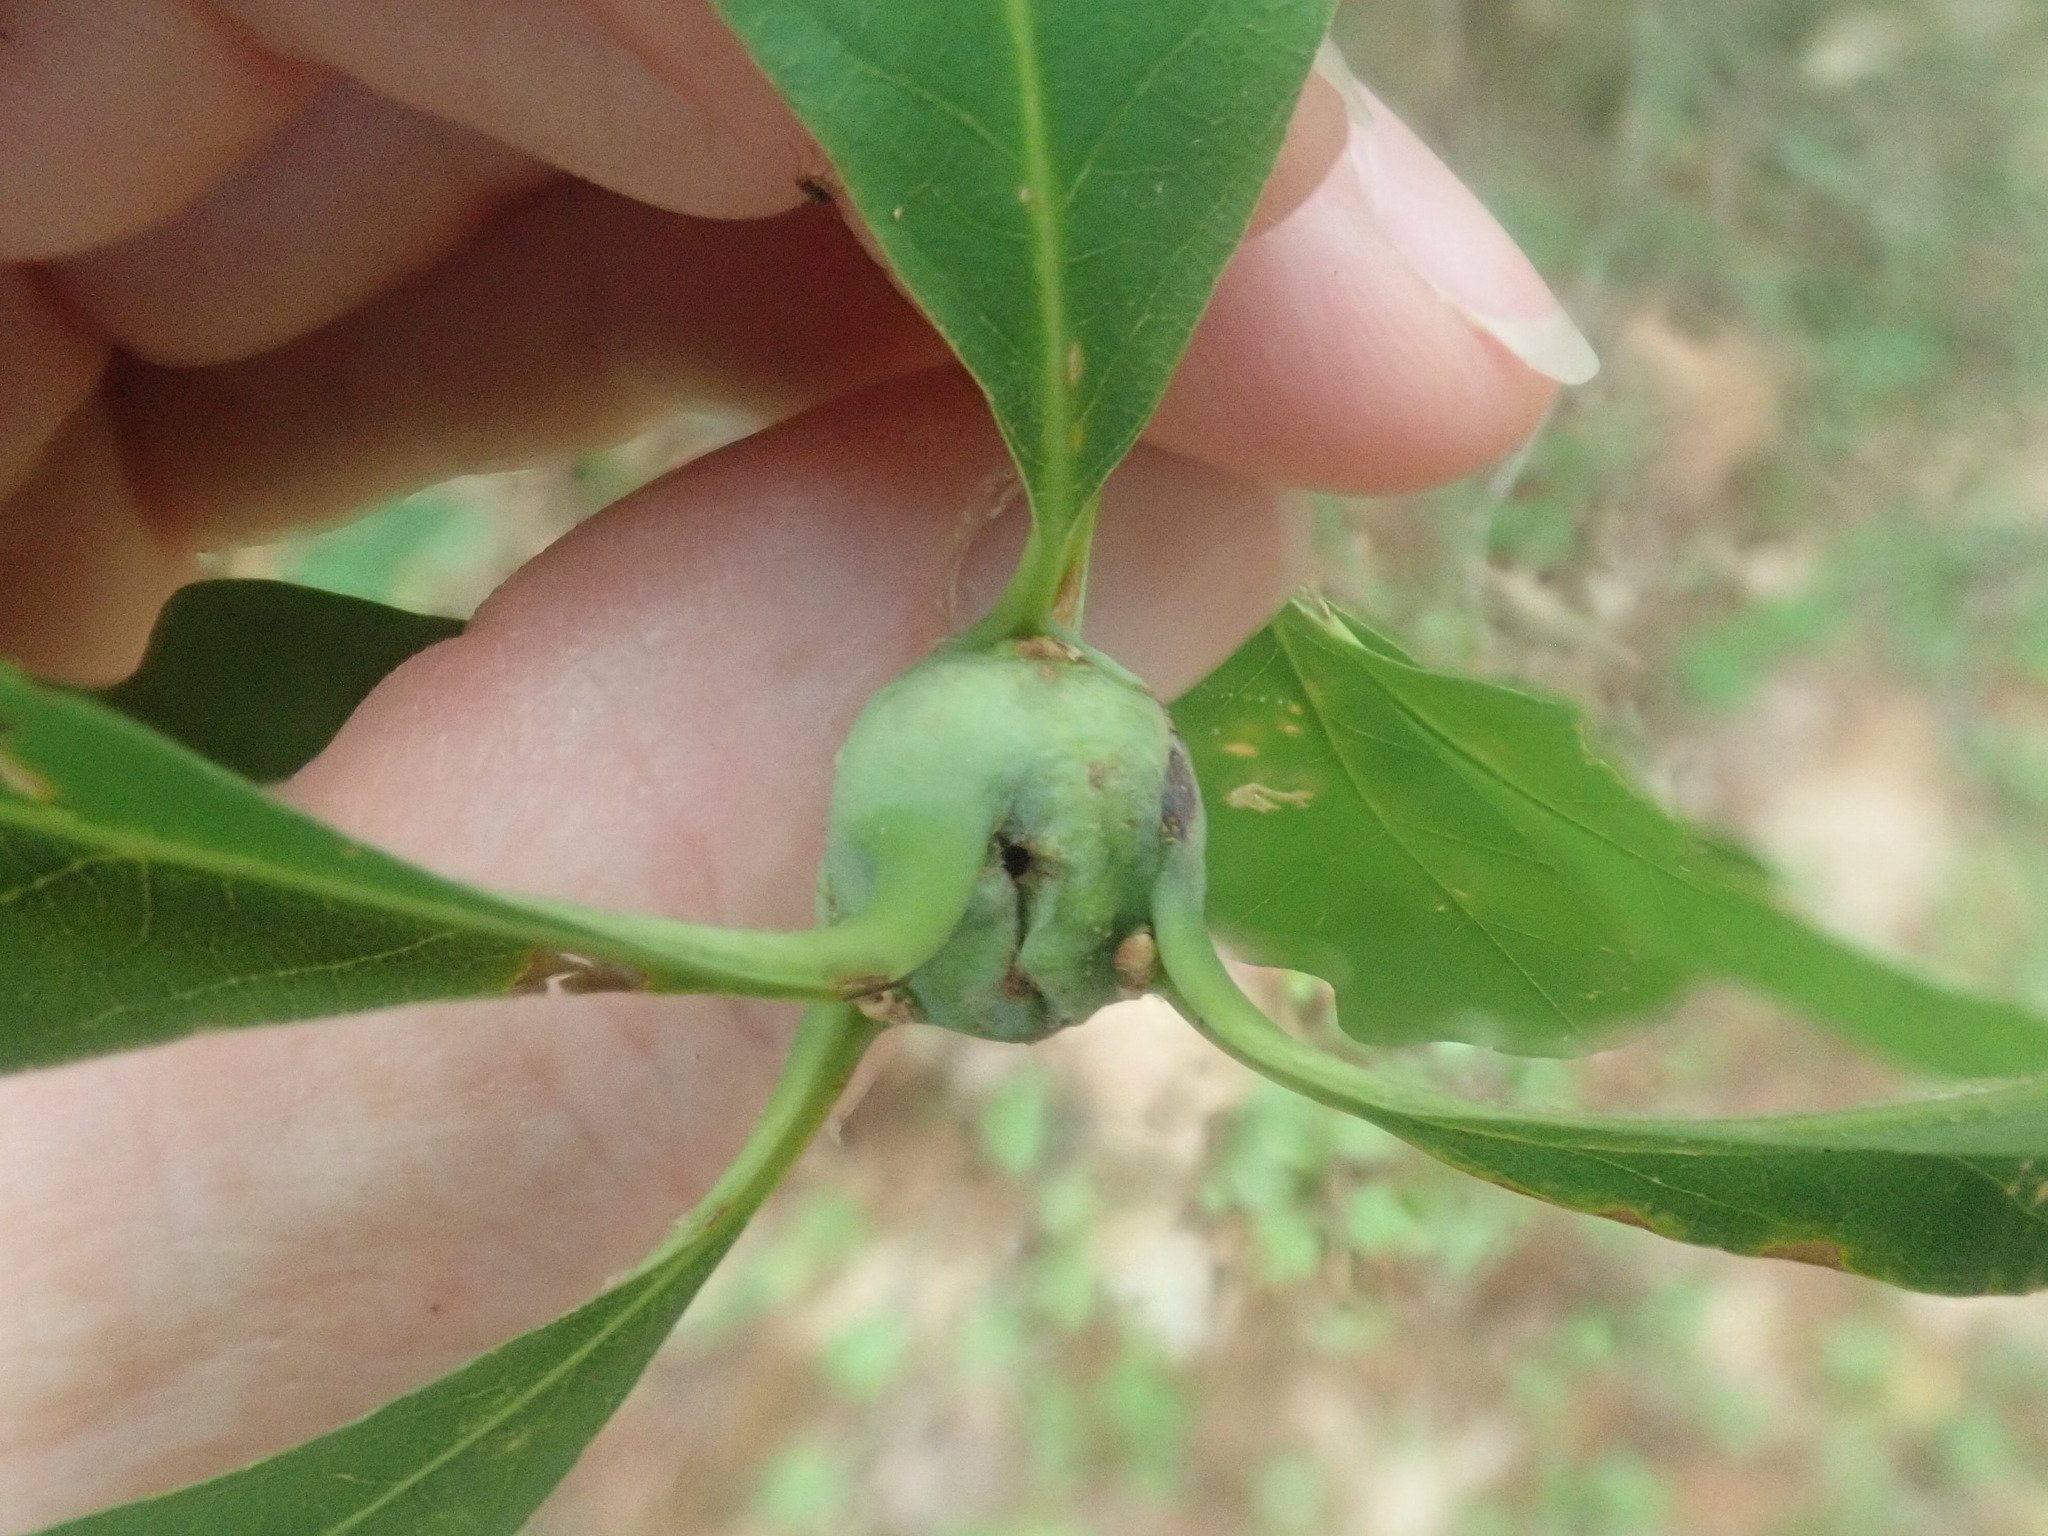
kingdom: Animalia
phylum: Arthropoda
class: Insecta
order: Hymenoptera
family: Cynipidae
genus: Callirhytis
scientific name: Callirhytis clavula
